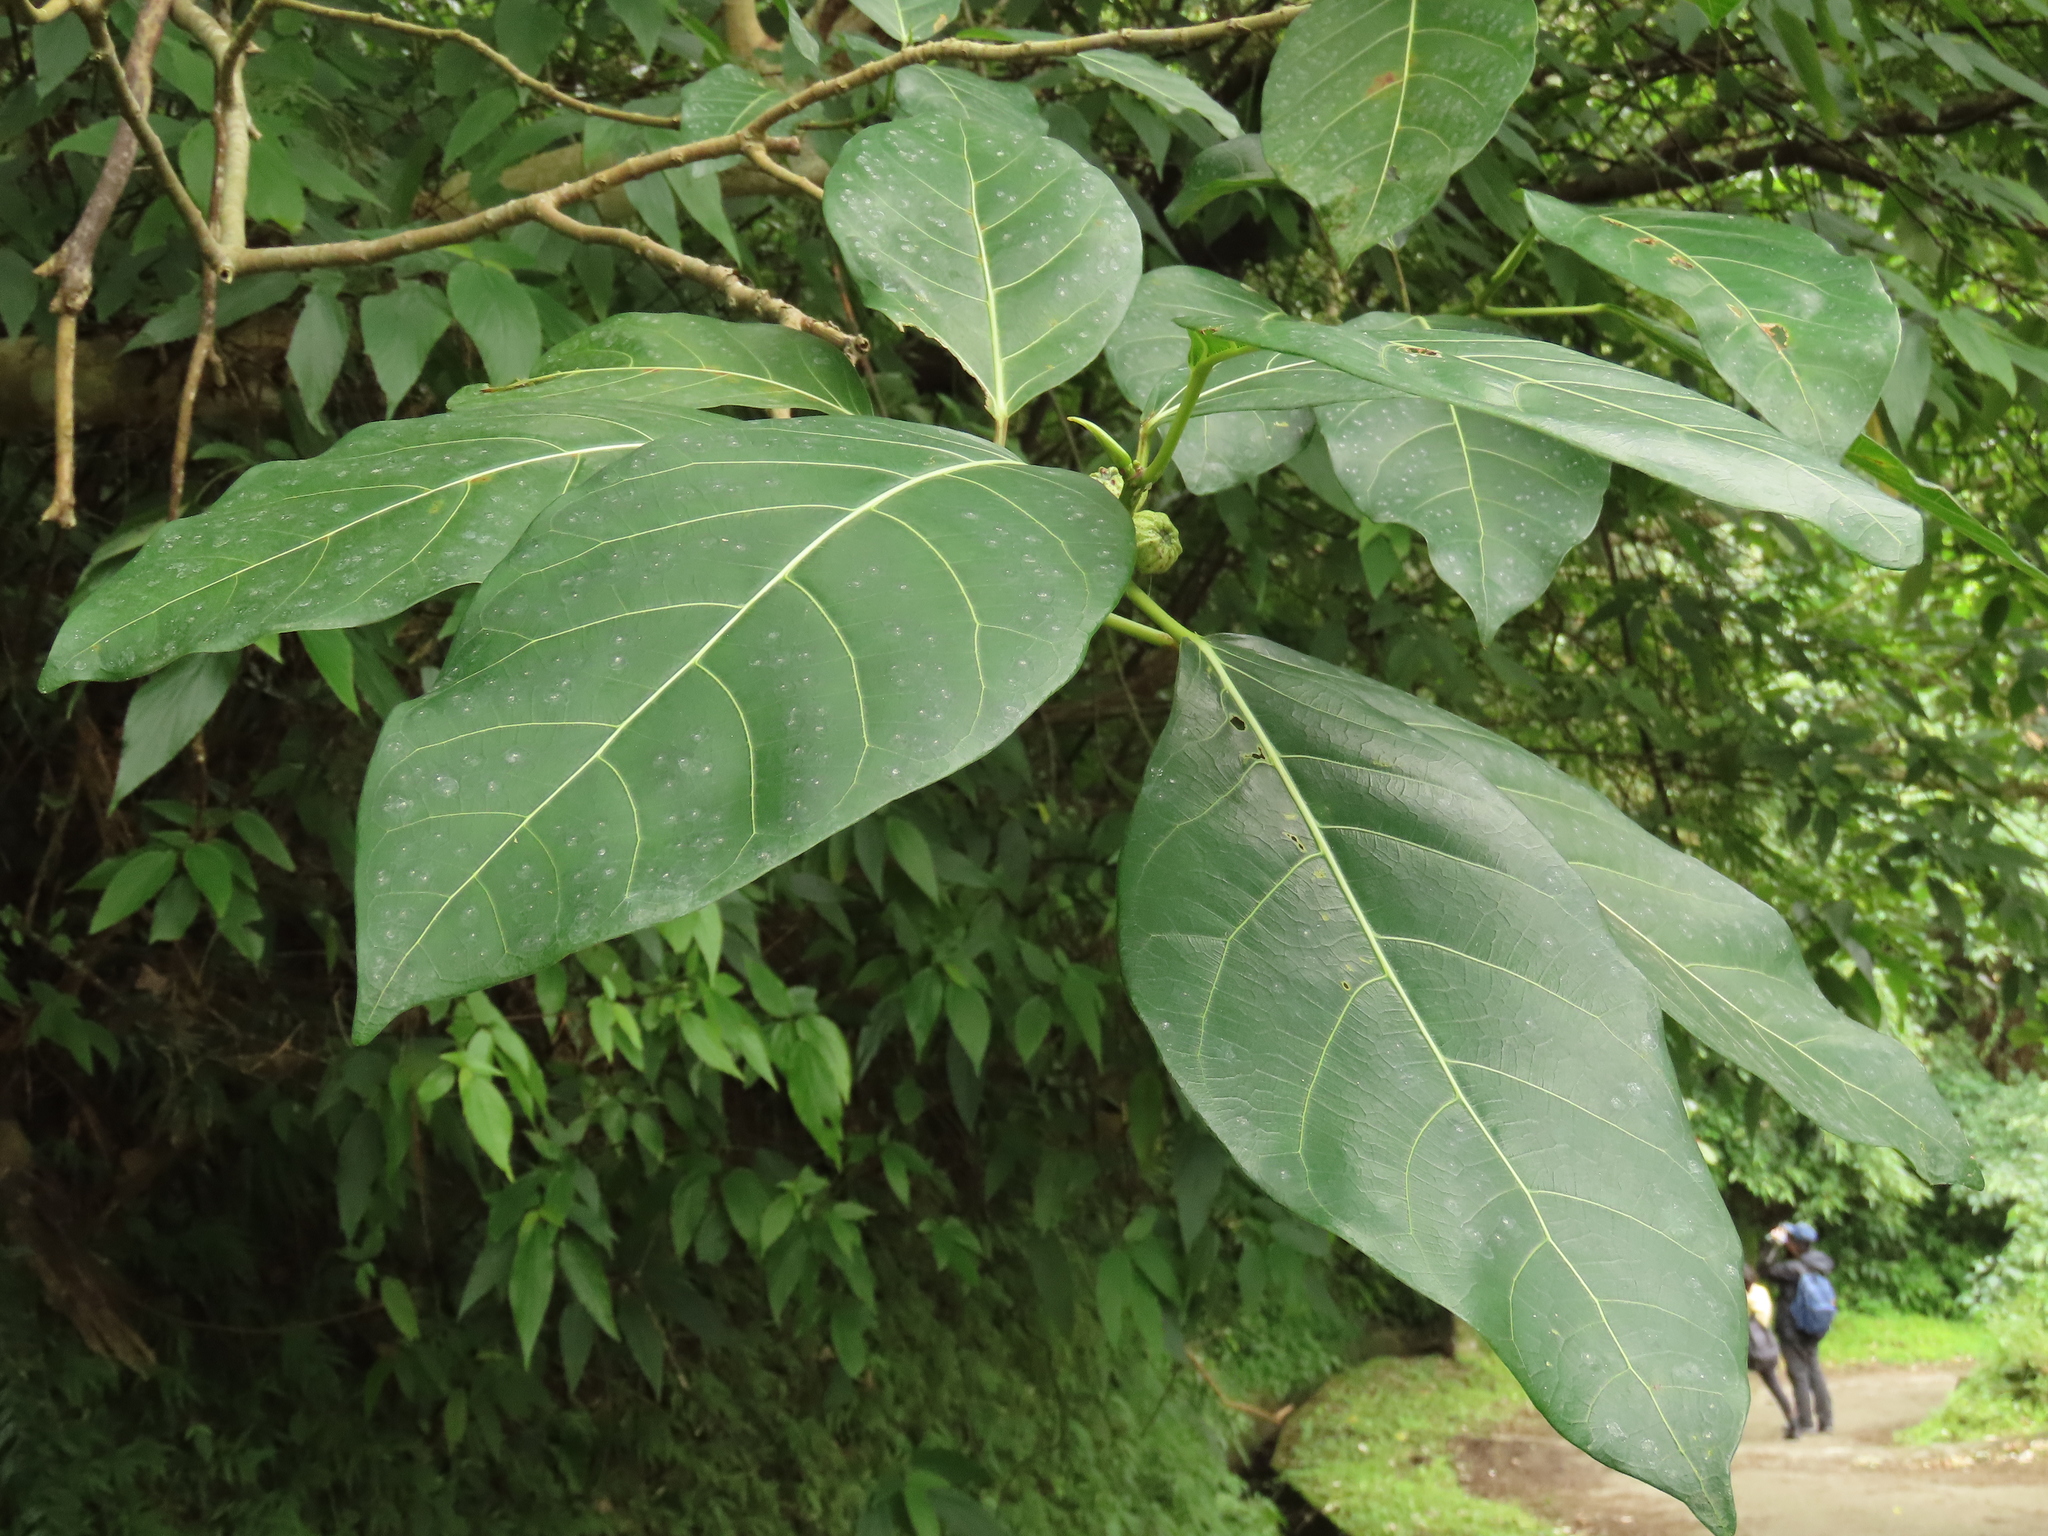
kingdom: Plantae
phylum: Tracheophyta
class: Magnoliopsida
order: Rosales
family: Moraceae
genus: Ficus
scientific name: Ficus septica
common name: Septic fig
